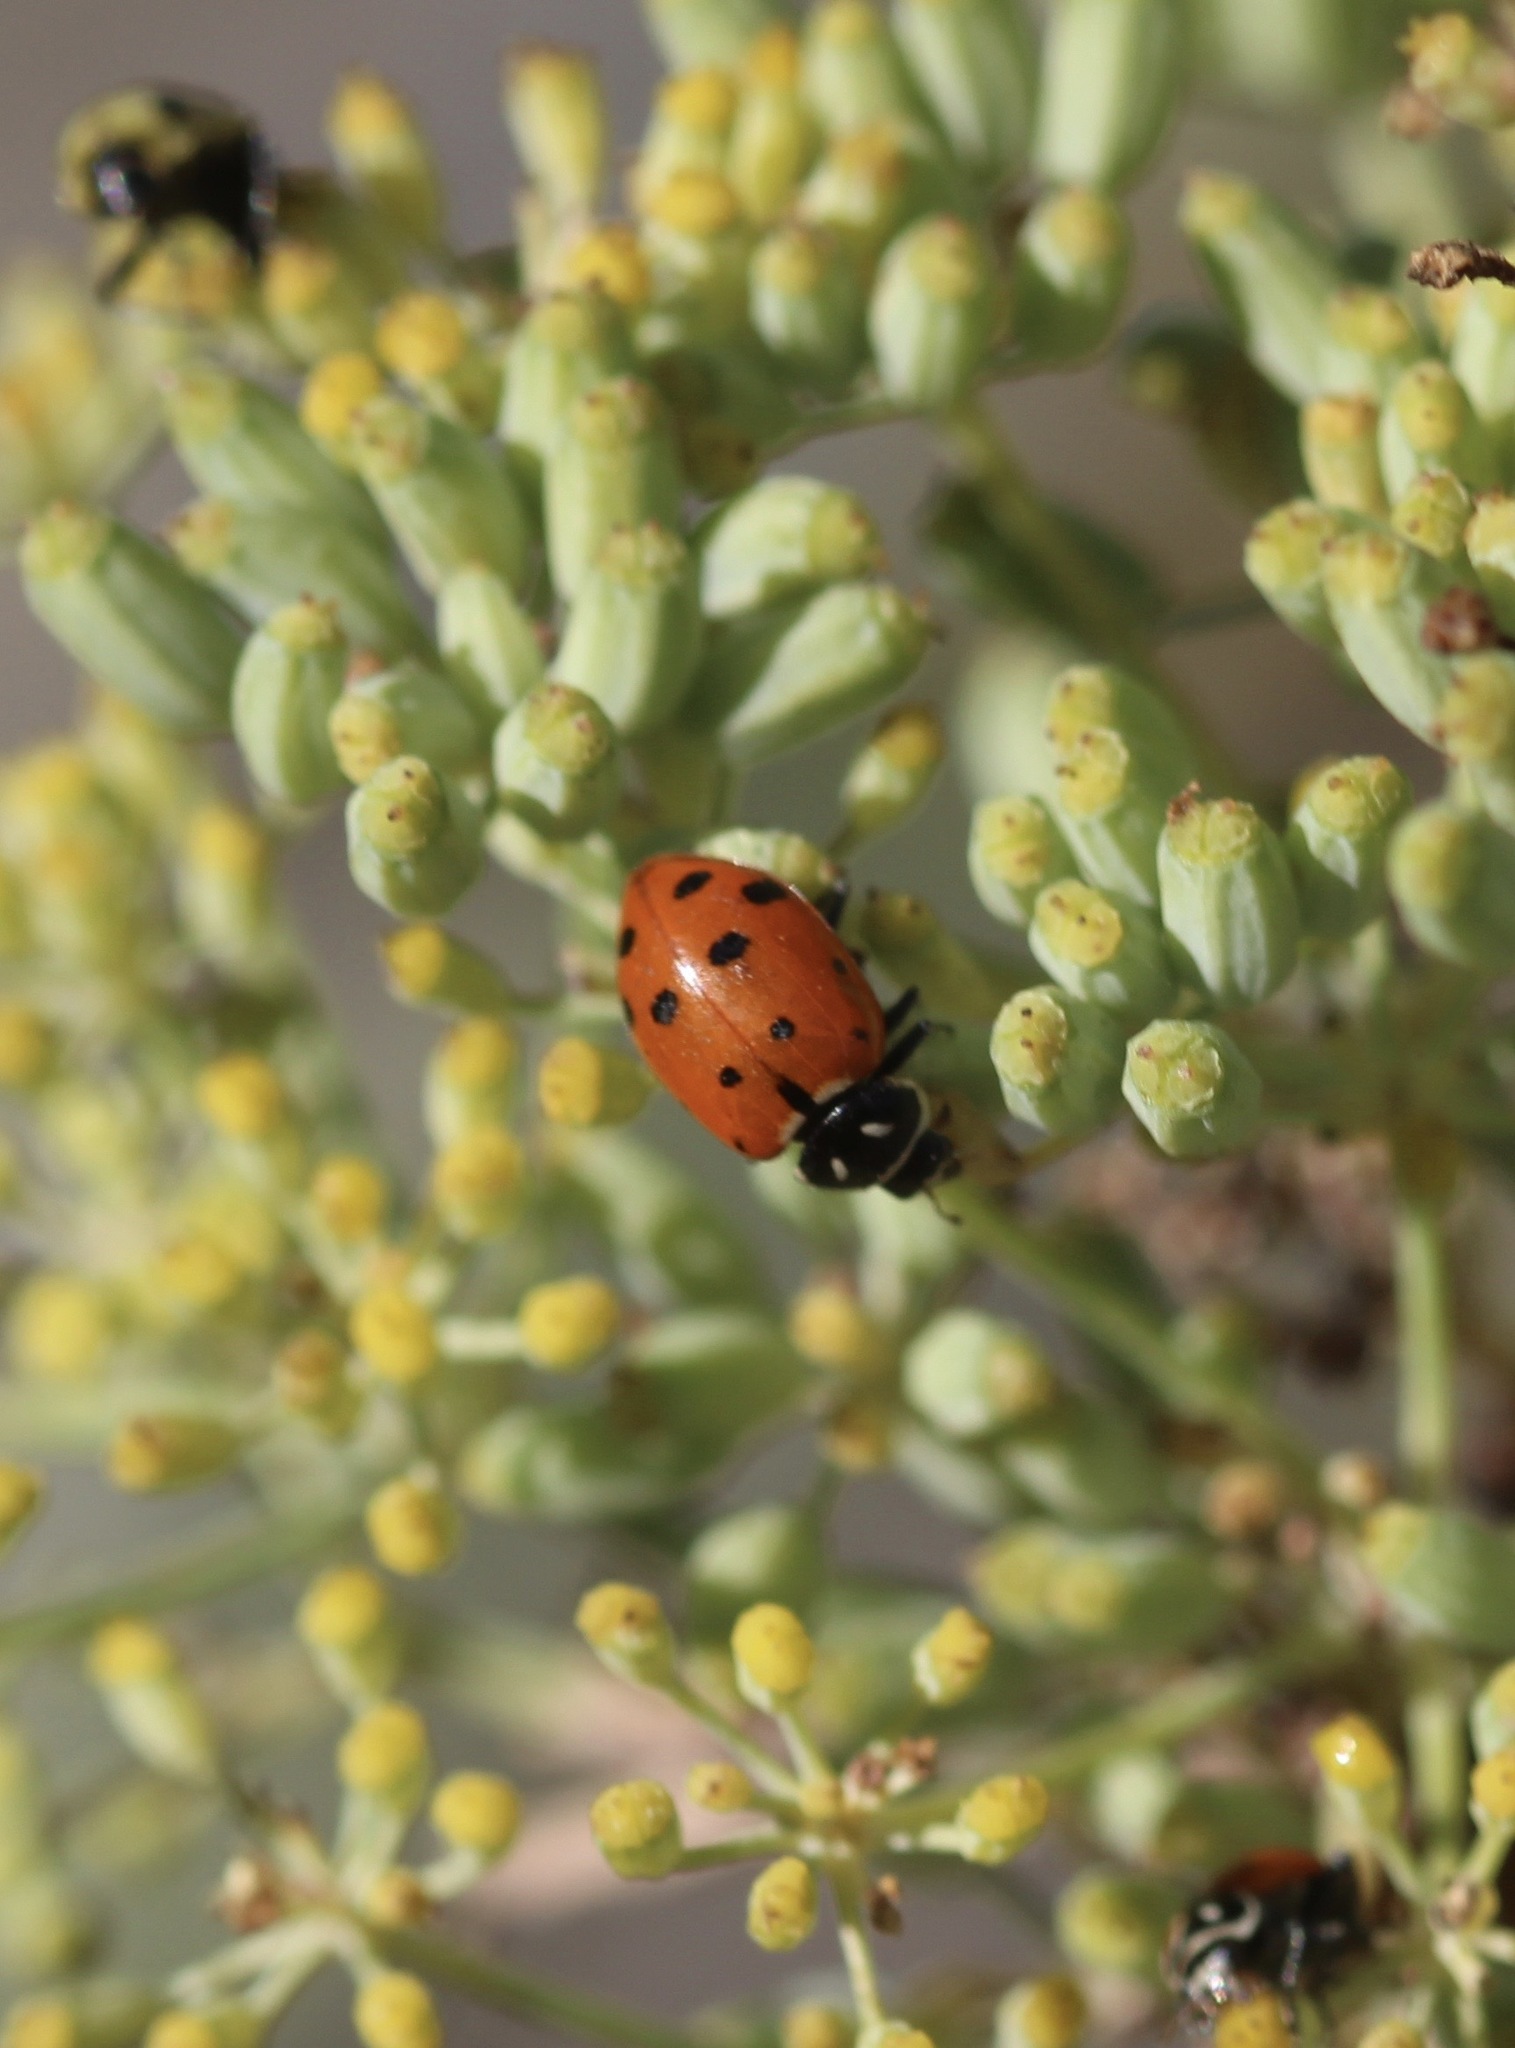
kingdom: Animalia
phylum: Arthropoda
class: Insecta
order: Coleoptera
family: Coccinellidae
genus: Hippodamia
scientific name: Hippodamia convergens
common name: Convergent lady beetle
